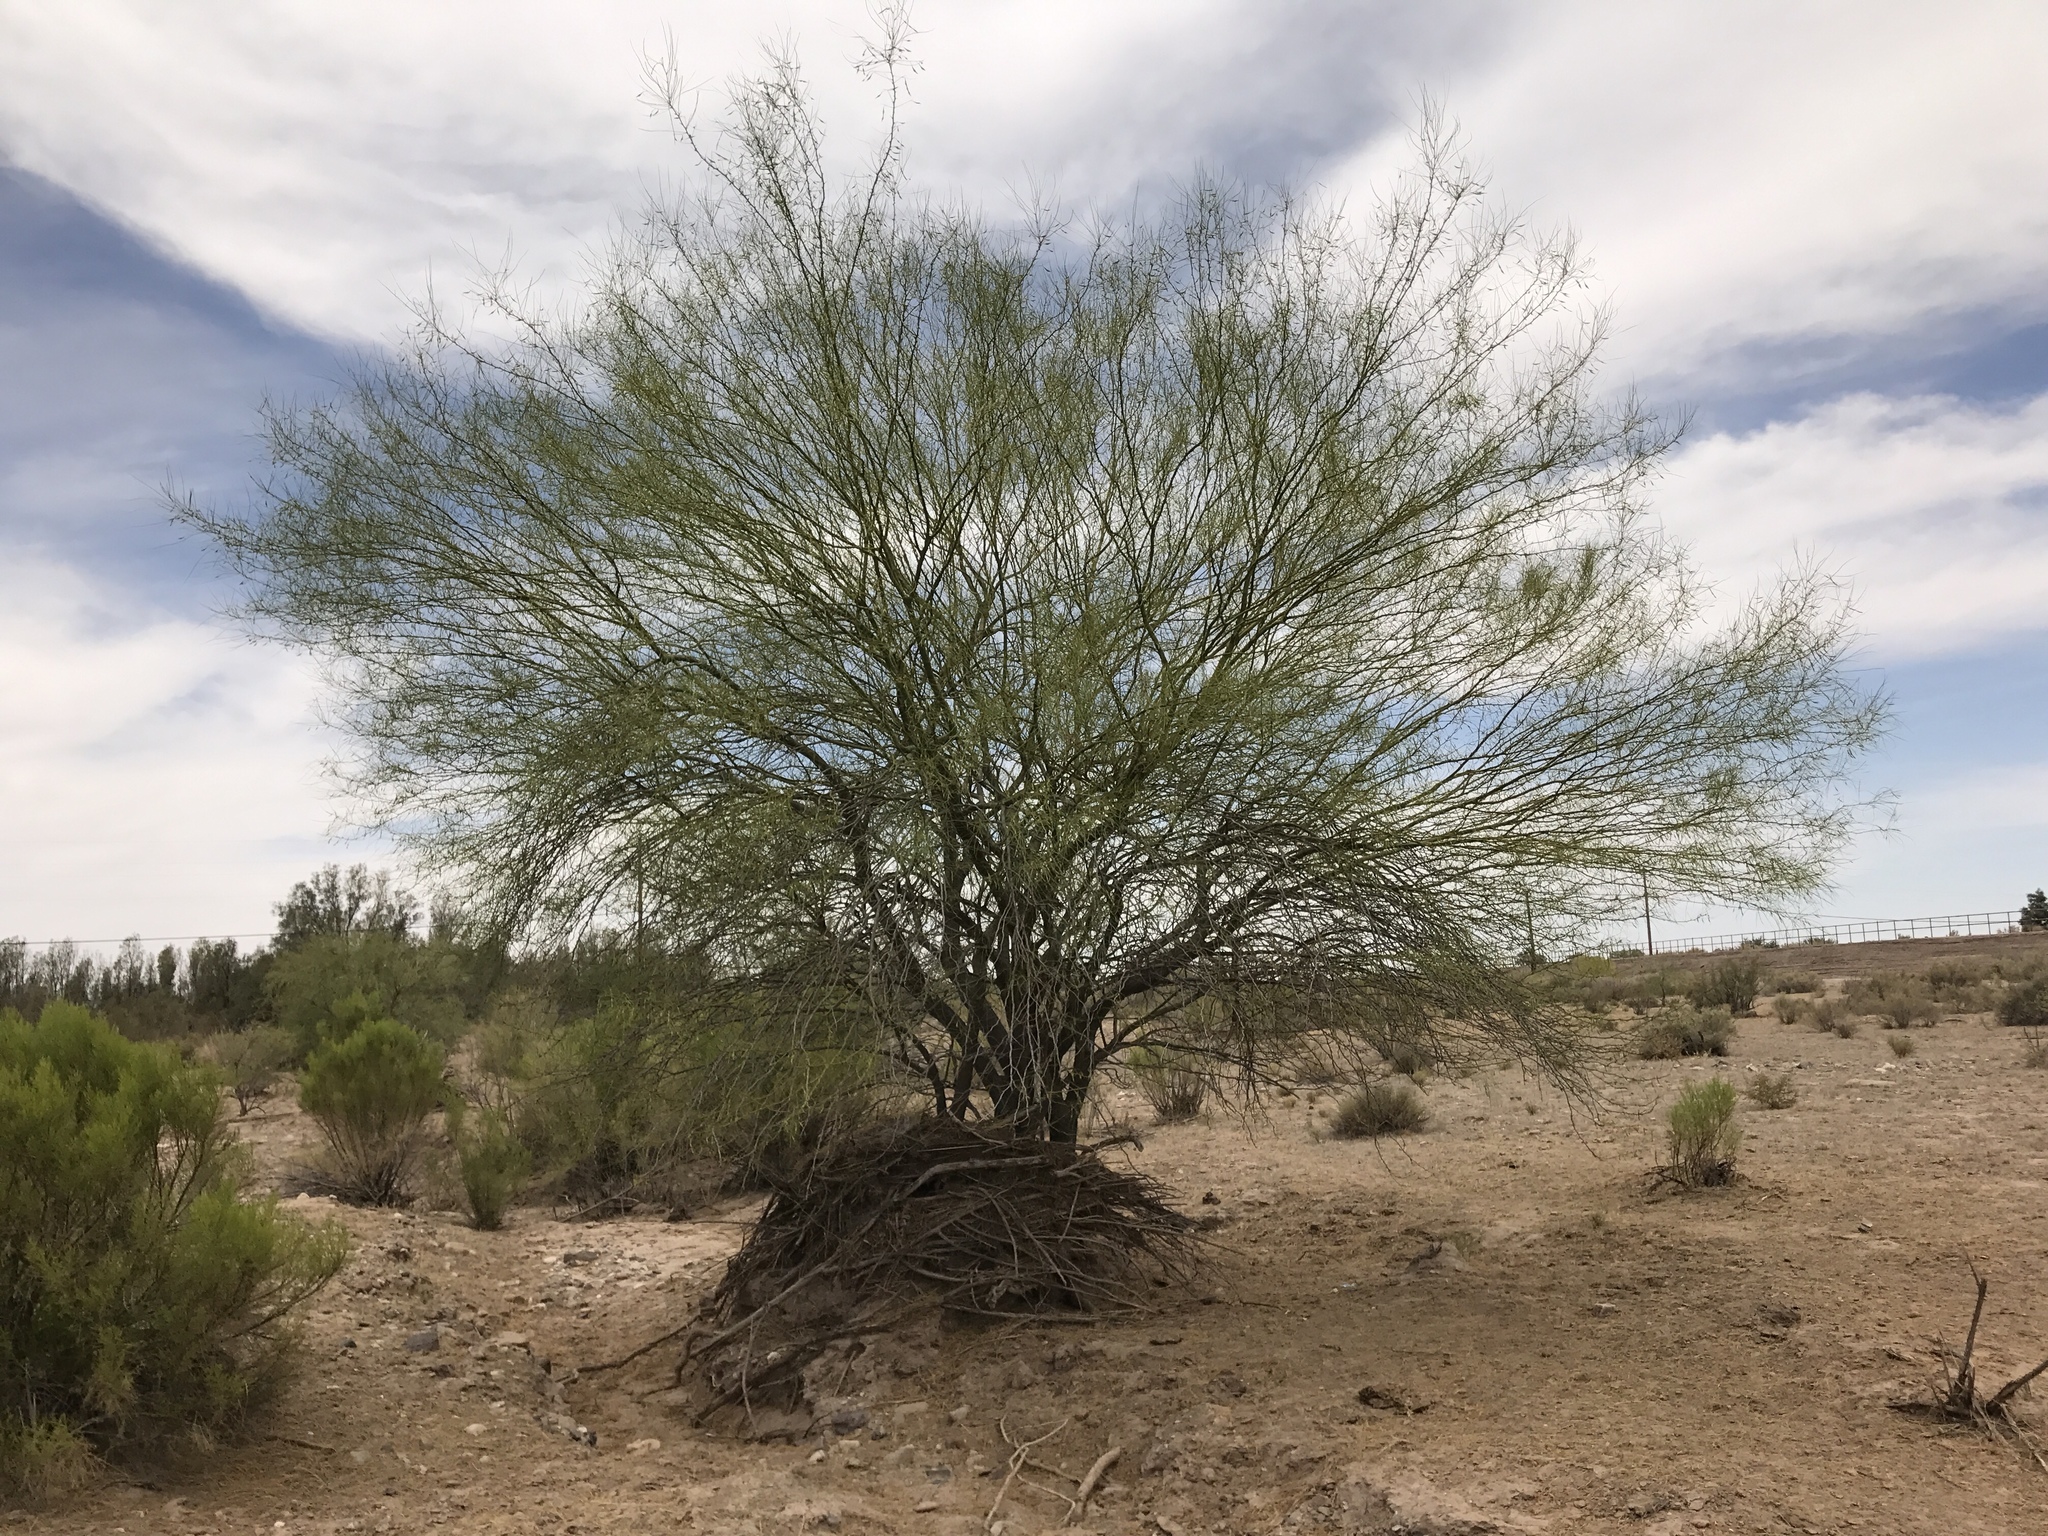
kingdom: Plantae
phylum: Tracheophyta
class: Magnoliopsida
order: Fabales
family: Fabaceae
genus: Parkinsonia
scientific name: Parkinsonia florida
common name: Blue paloverde
